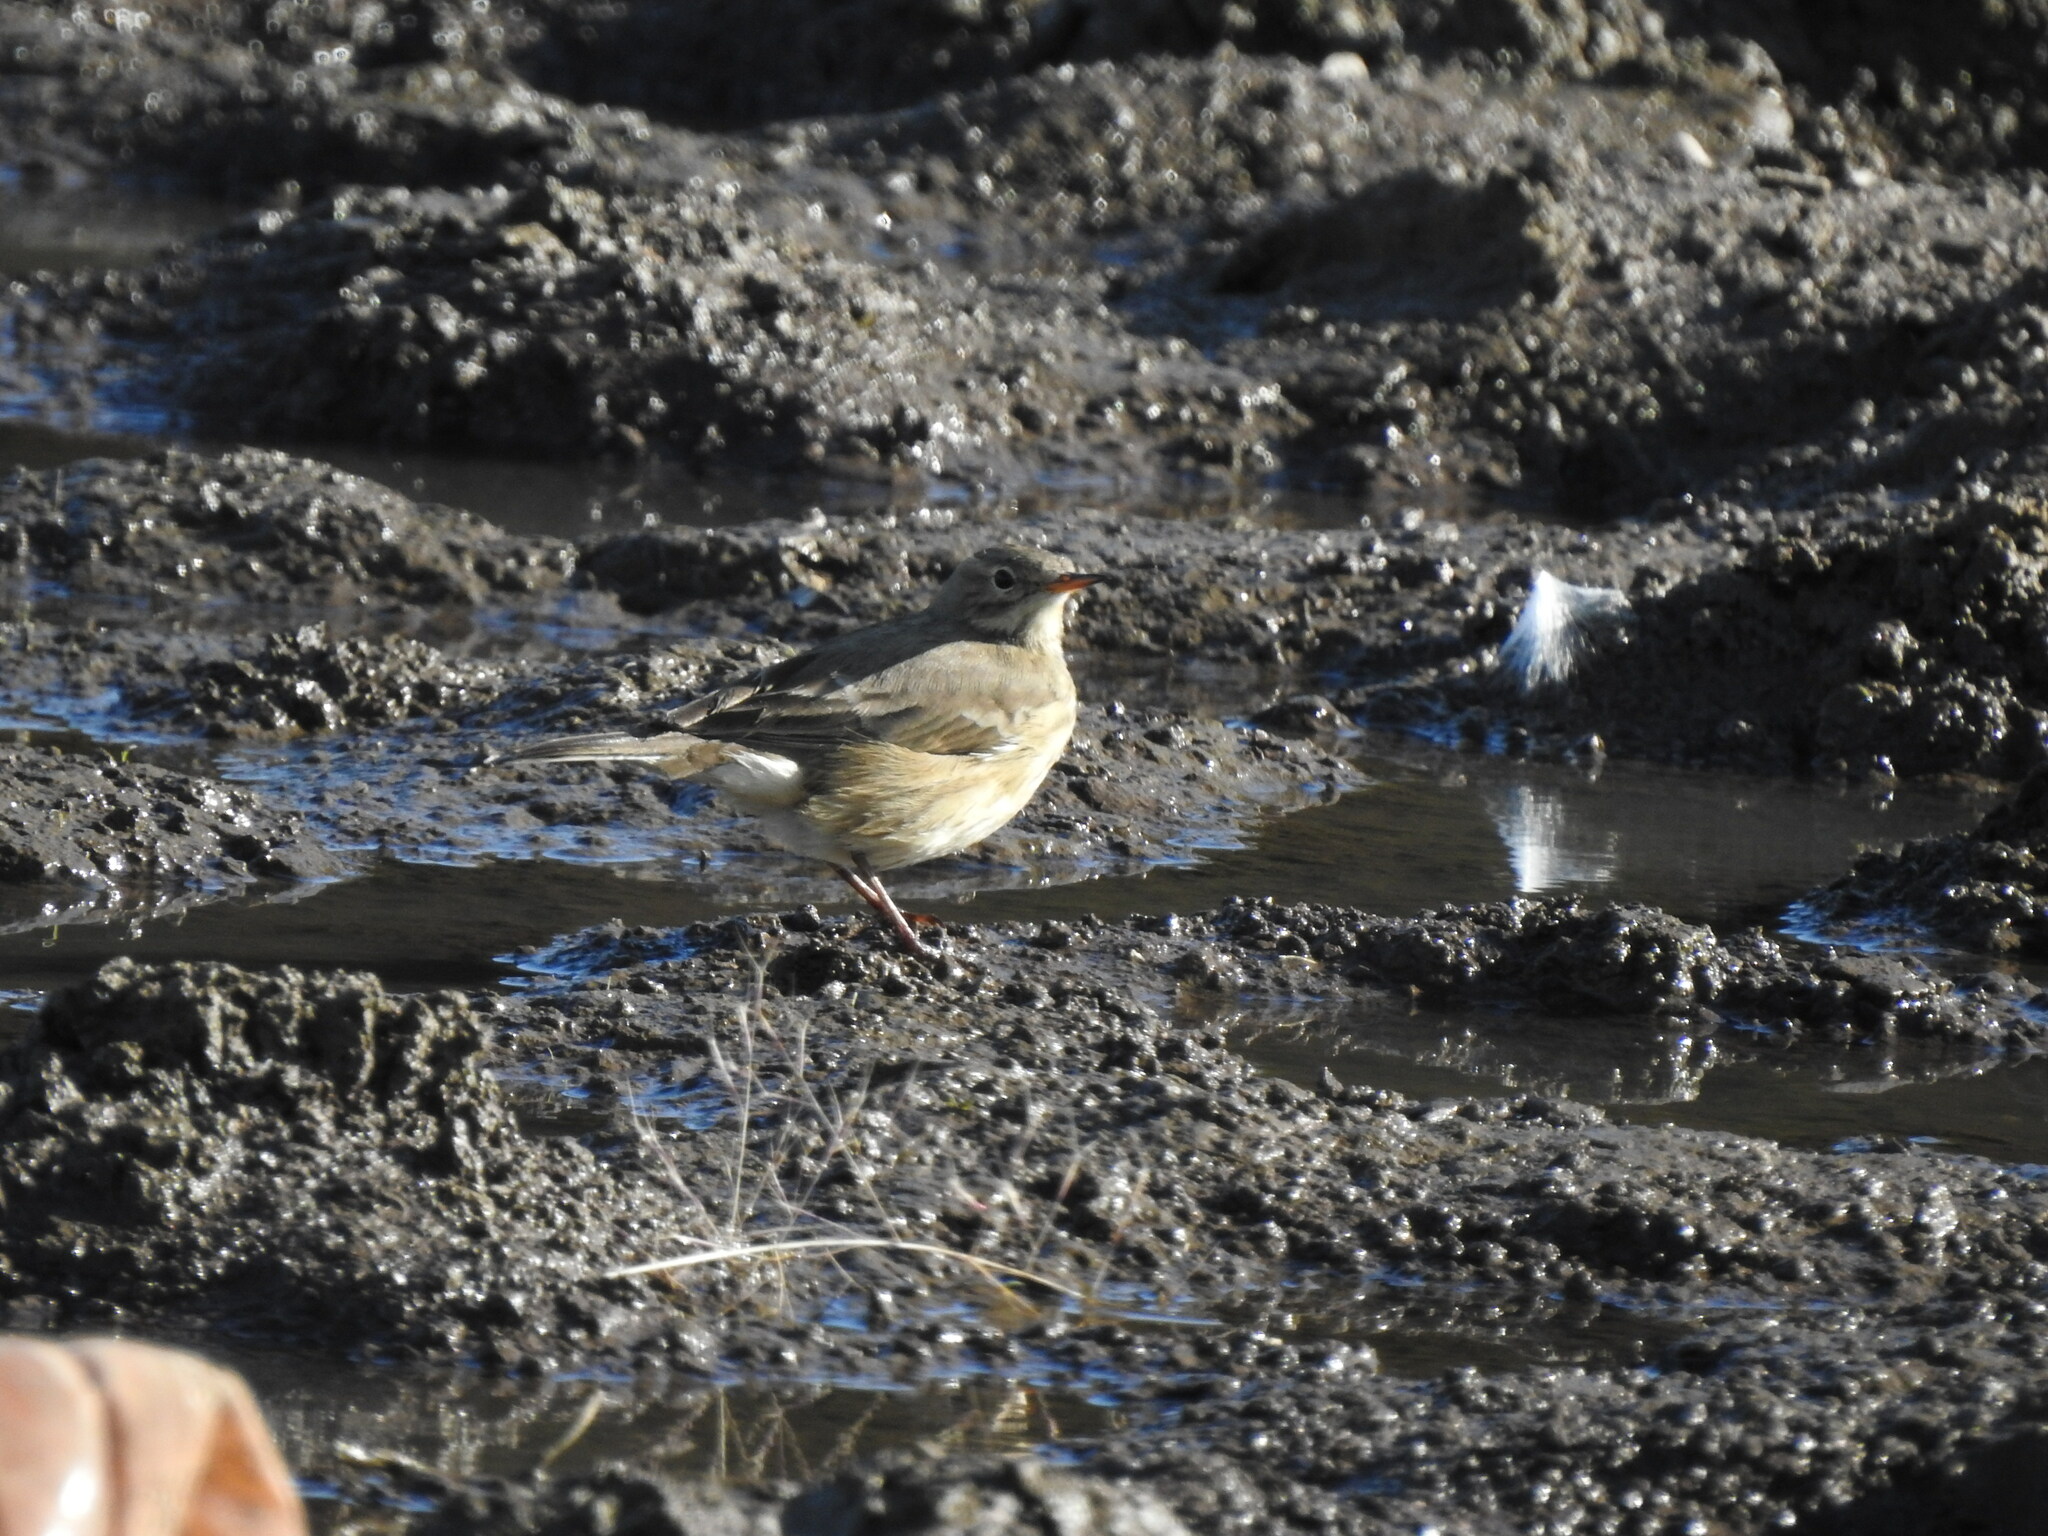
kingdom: Animalia
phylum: Chordata
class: Aves
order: Passeriformes
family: Motacillidae
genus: Anthus
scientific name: Anthus rubescens
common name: Buff-bellied pipit
